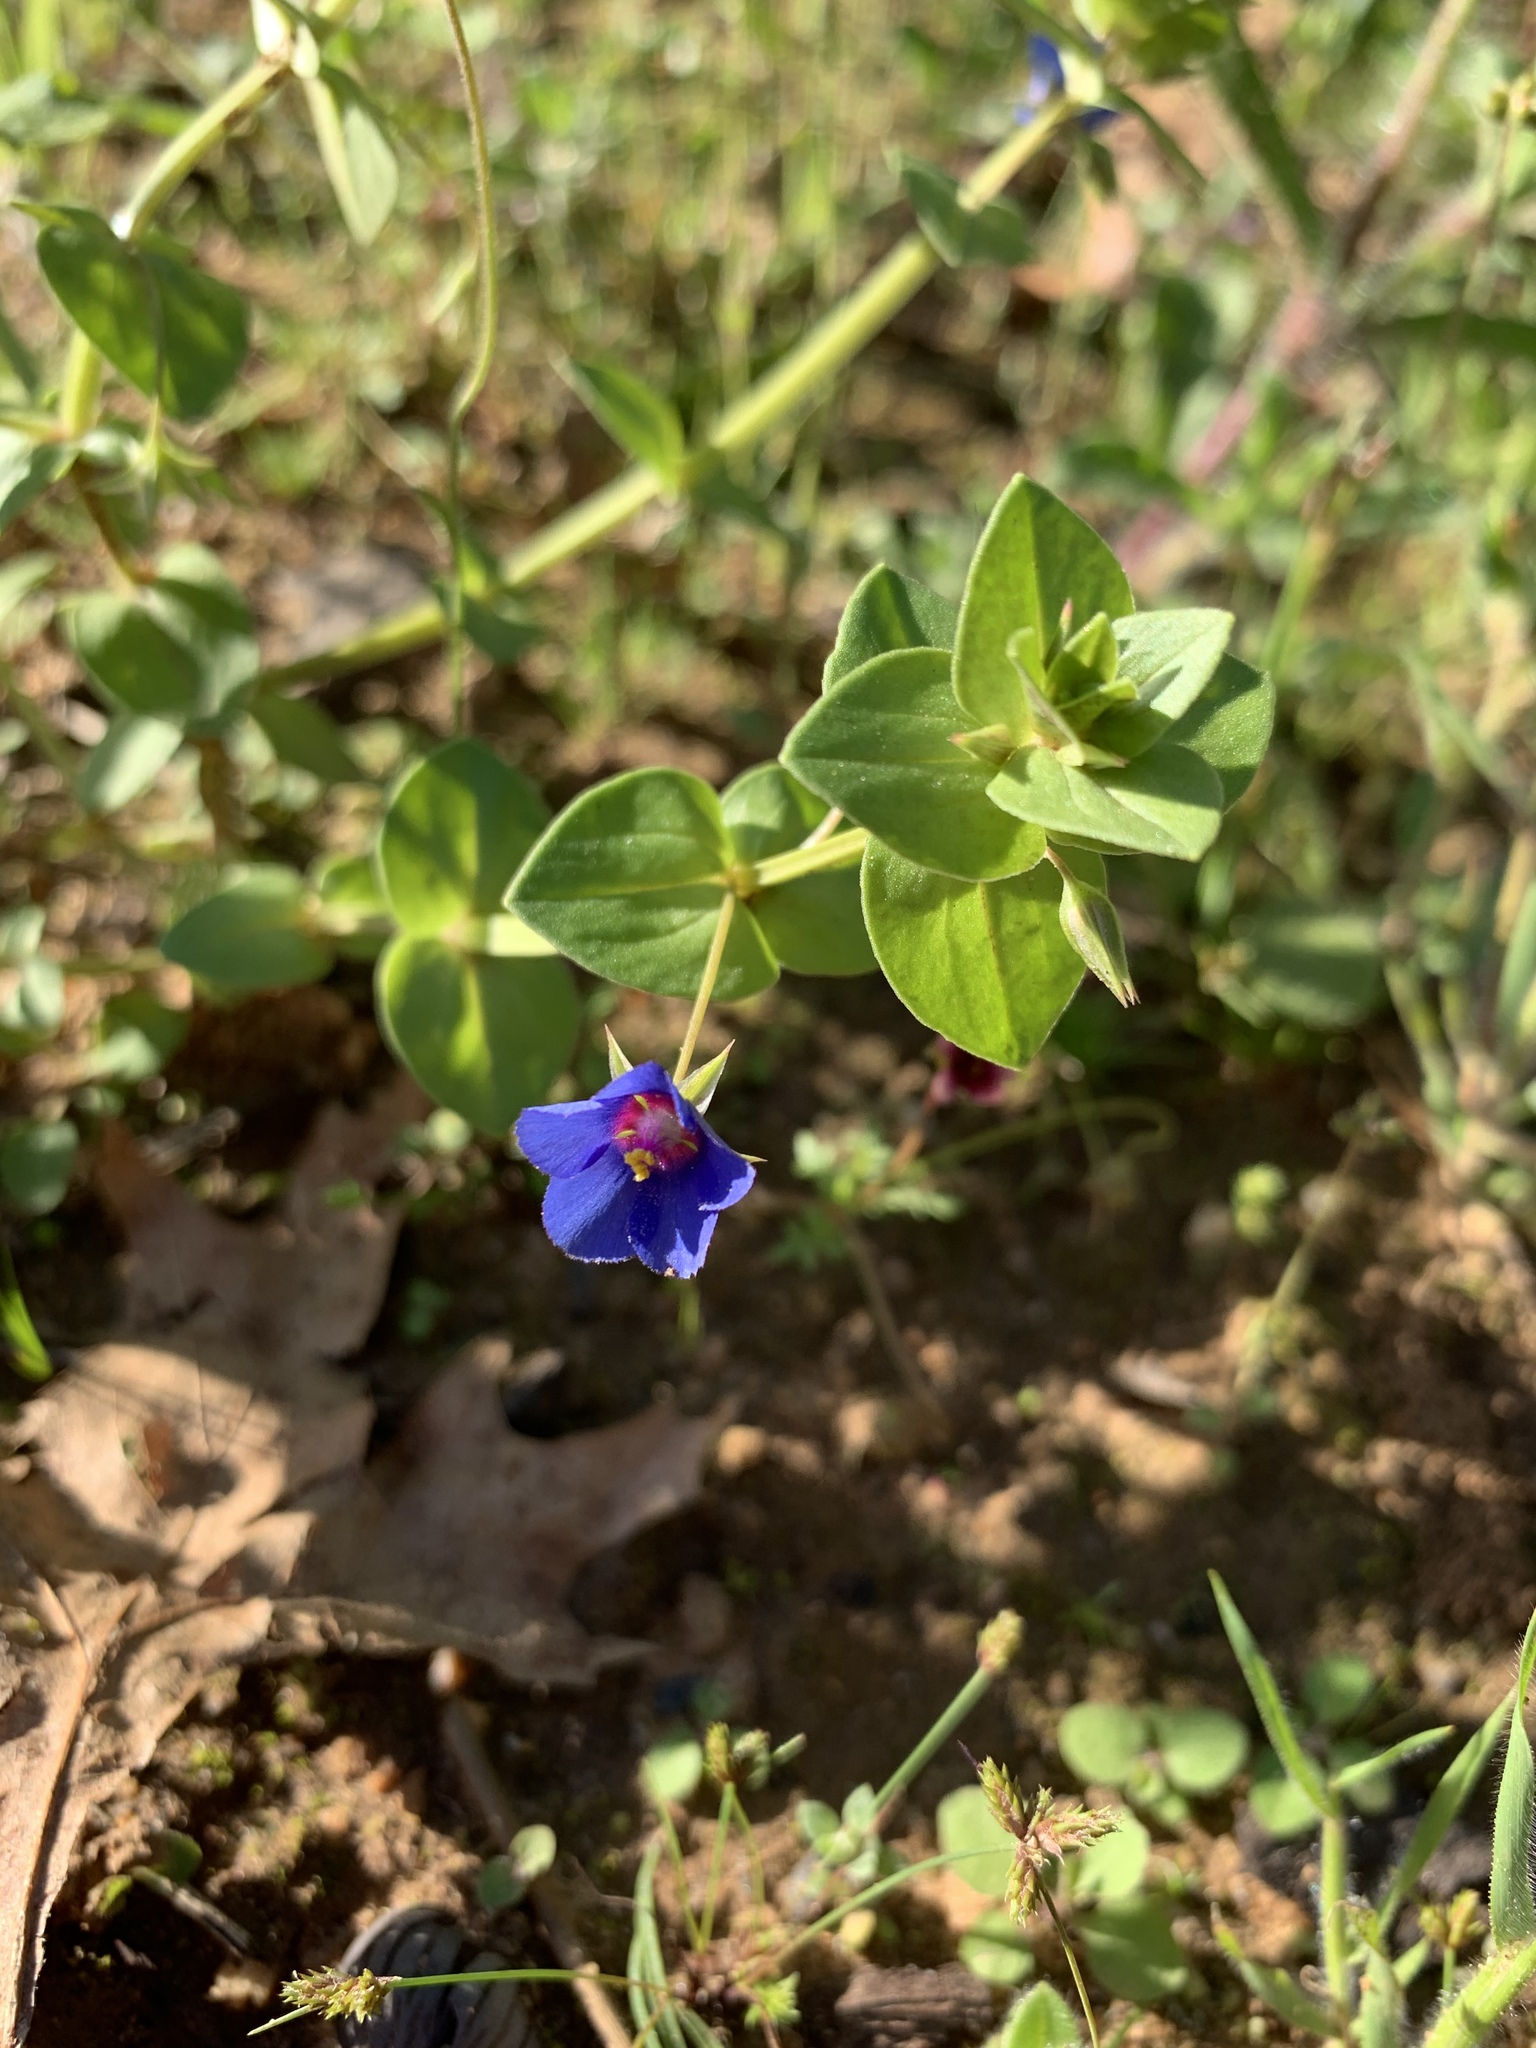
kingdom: Plantae
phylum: Tracheophyta
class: Magnoliopsida
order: Ericales
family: Primulaceae
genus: Lysimachia
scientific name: Lysimachia loeflingii
